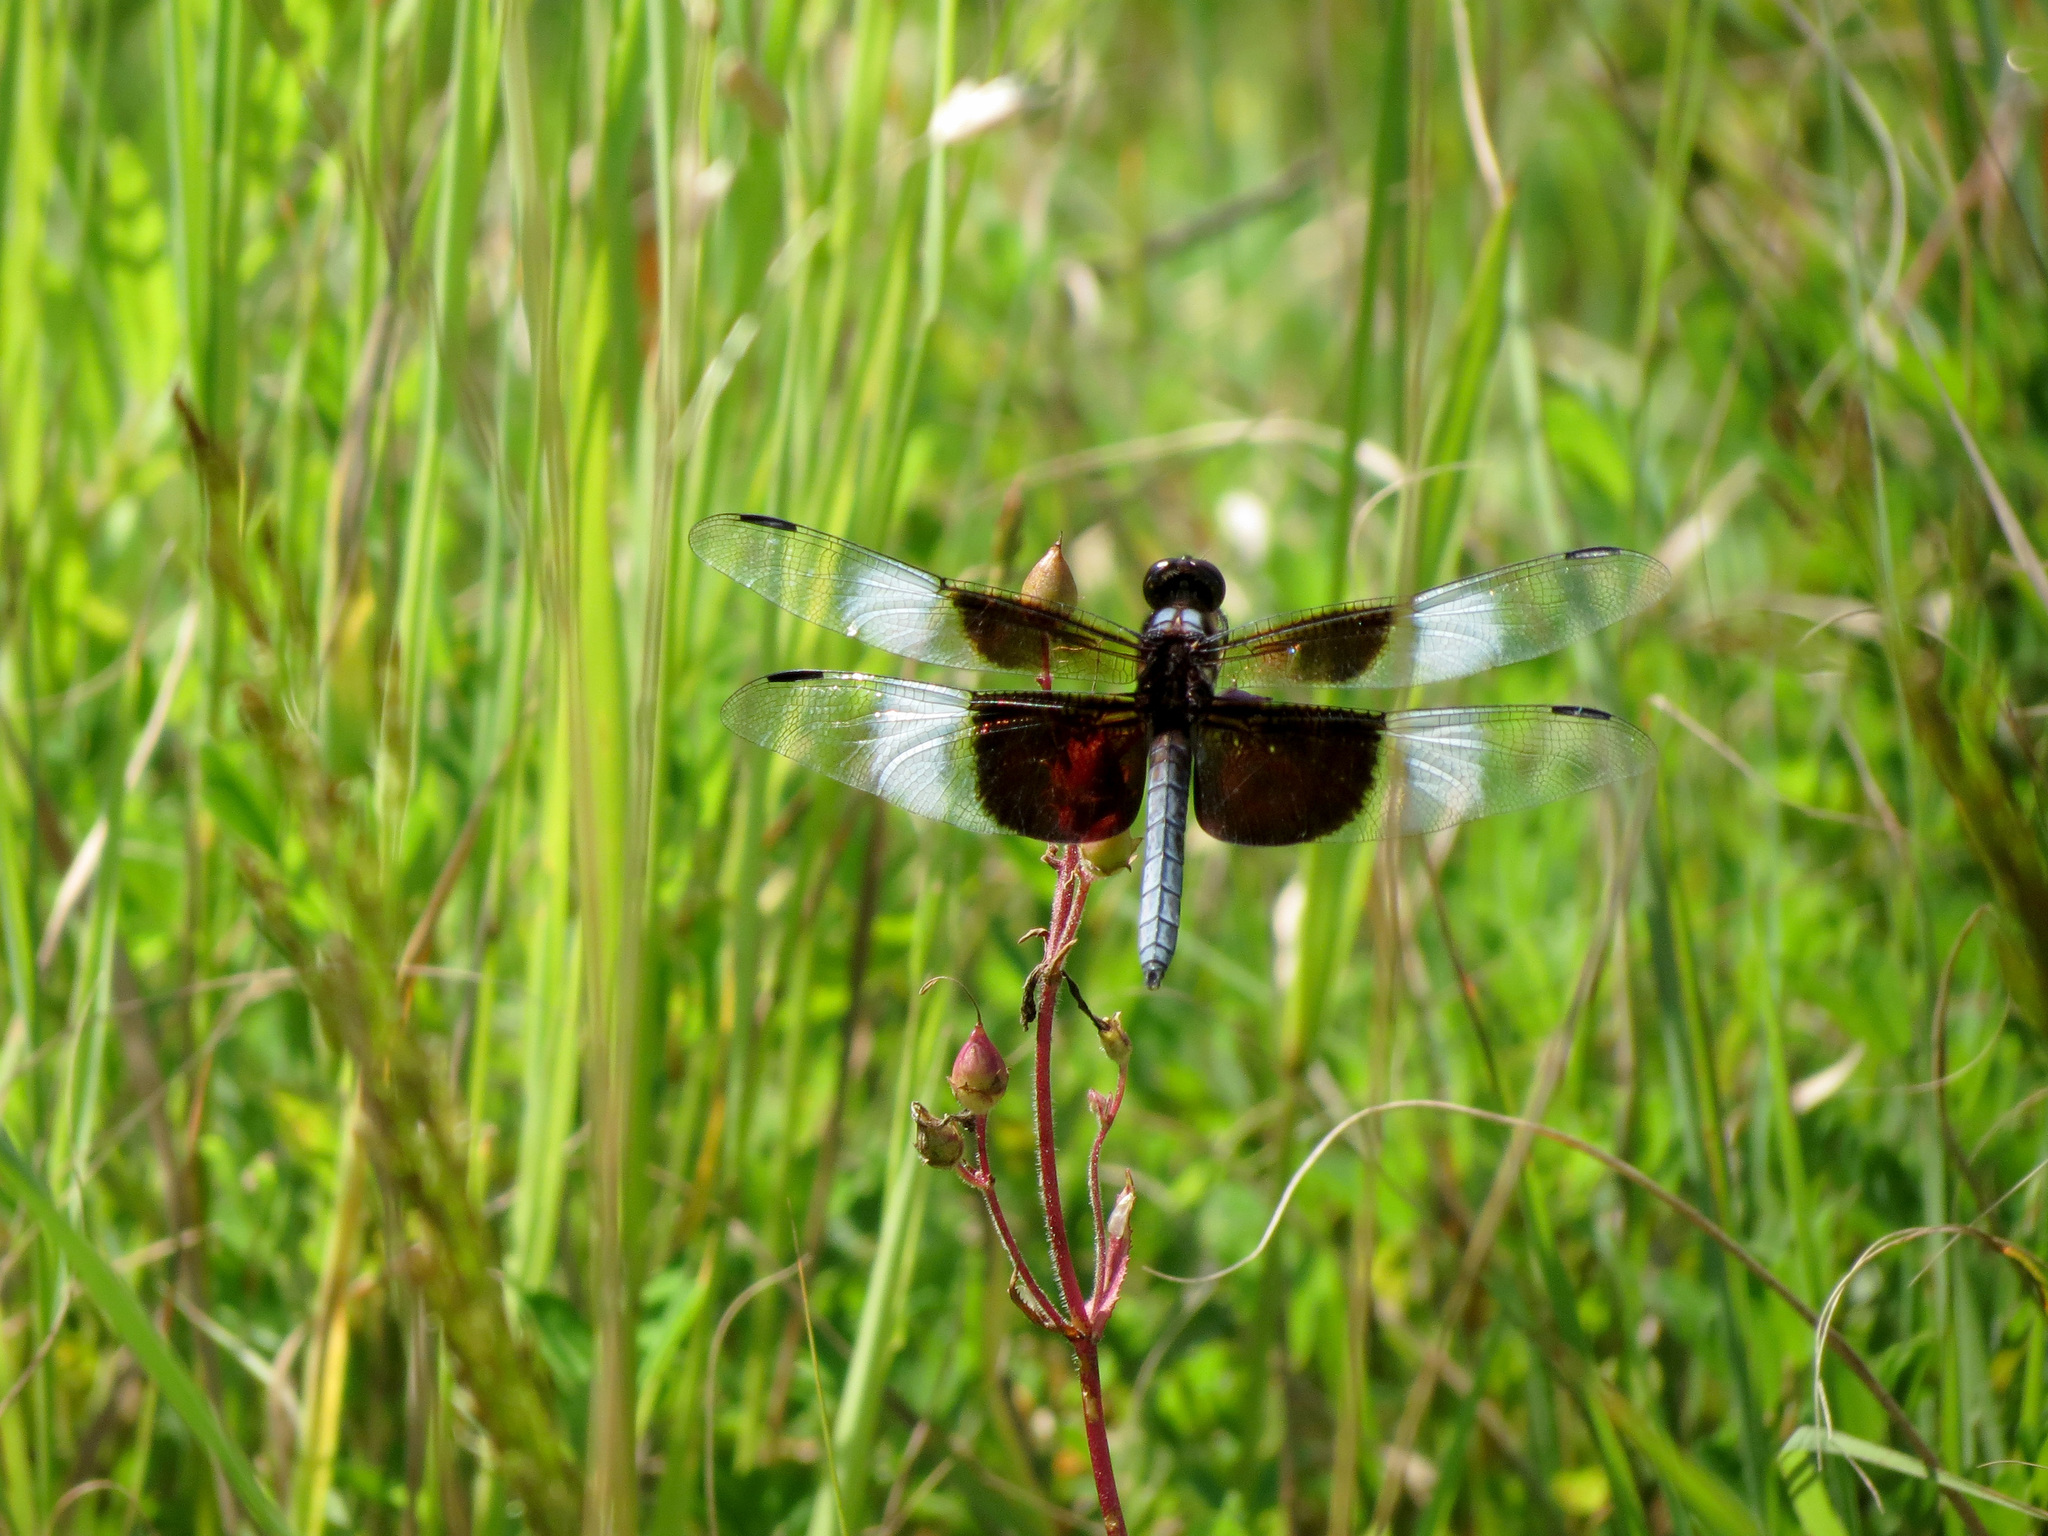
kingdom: Animalia
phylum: Arthropoda
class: Insecta
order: Odonata
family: Libellulidae
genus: Libellula
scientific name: Libellula luctuosa
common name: Widow skimmer
